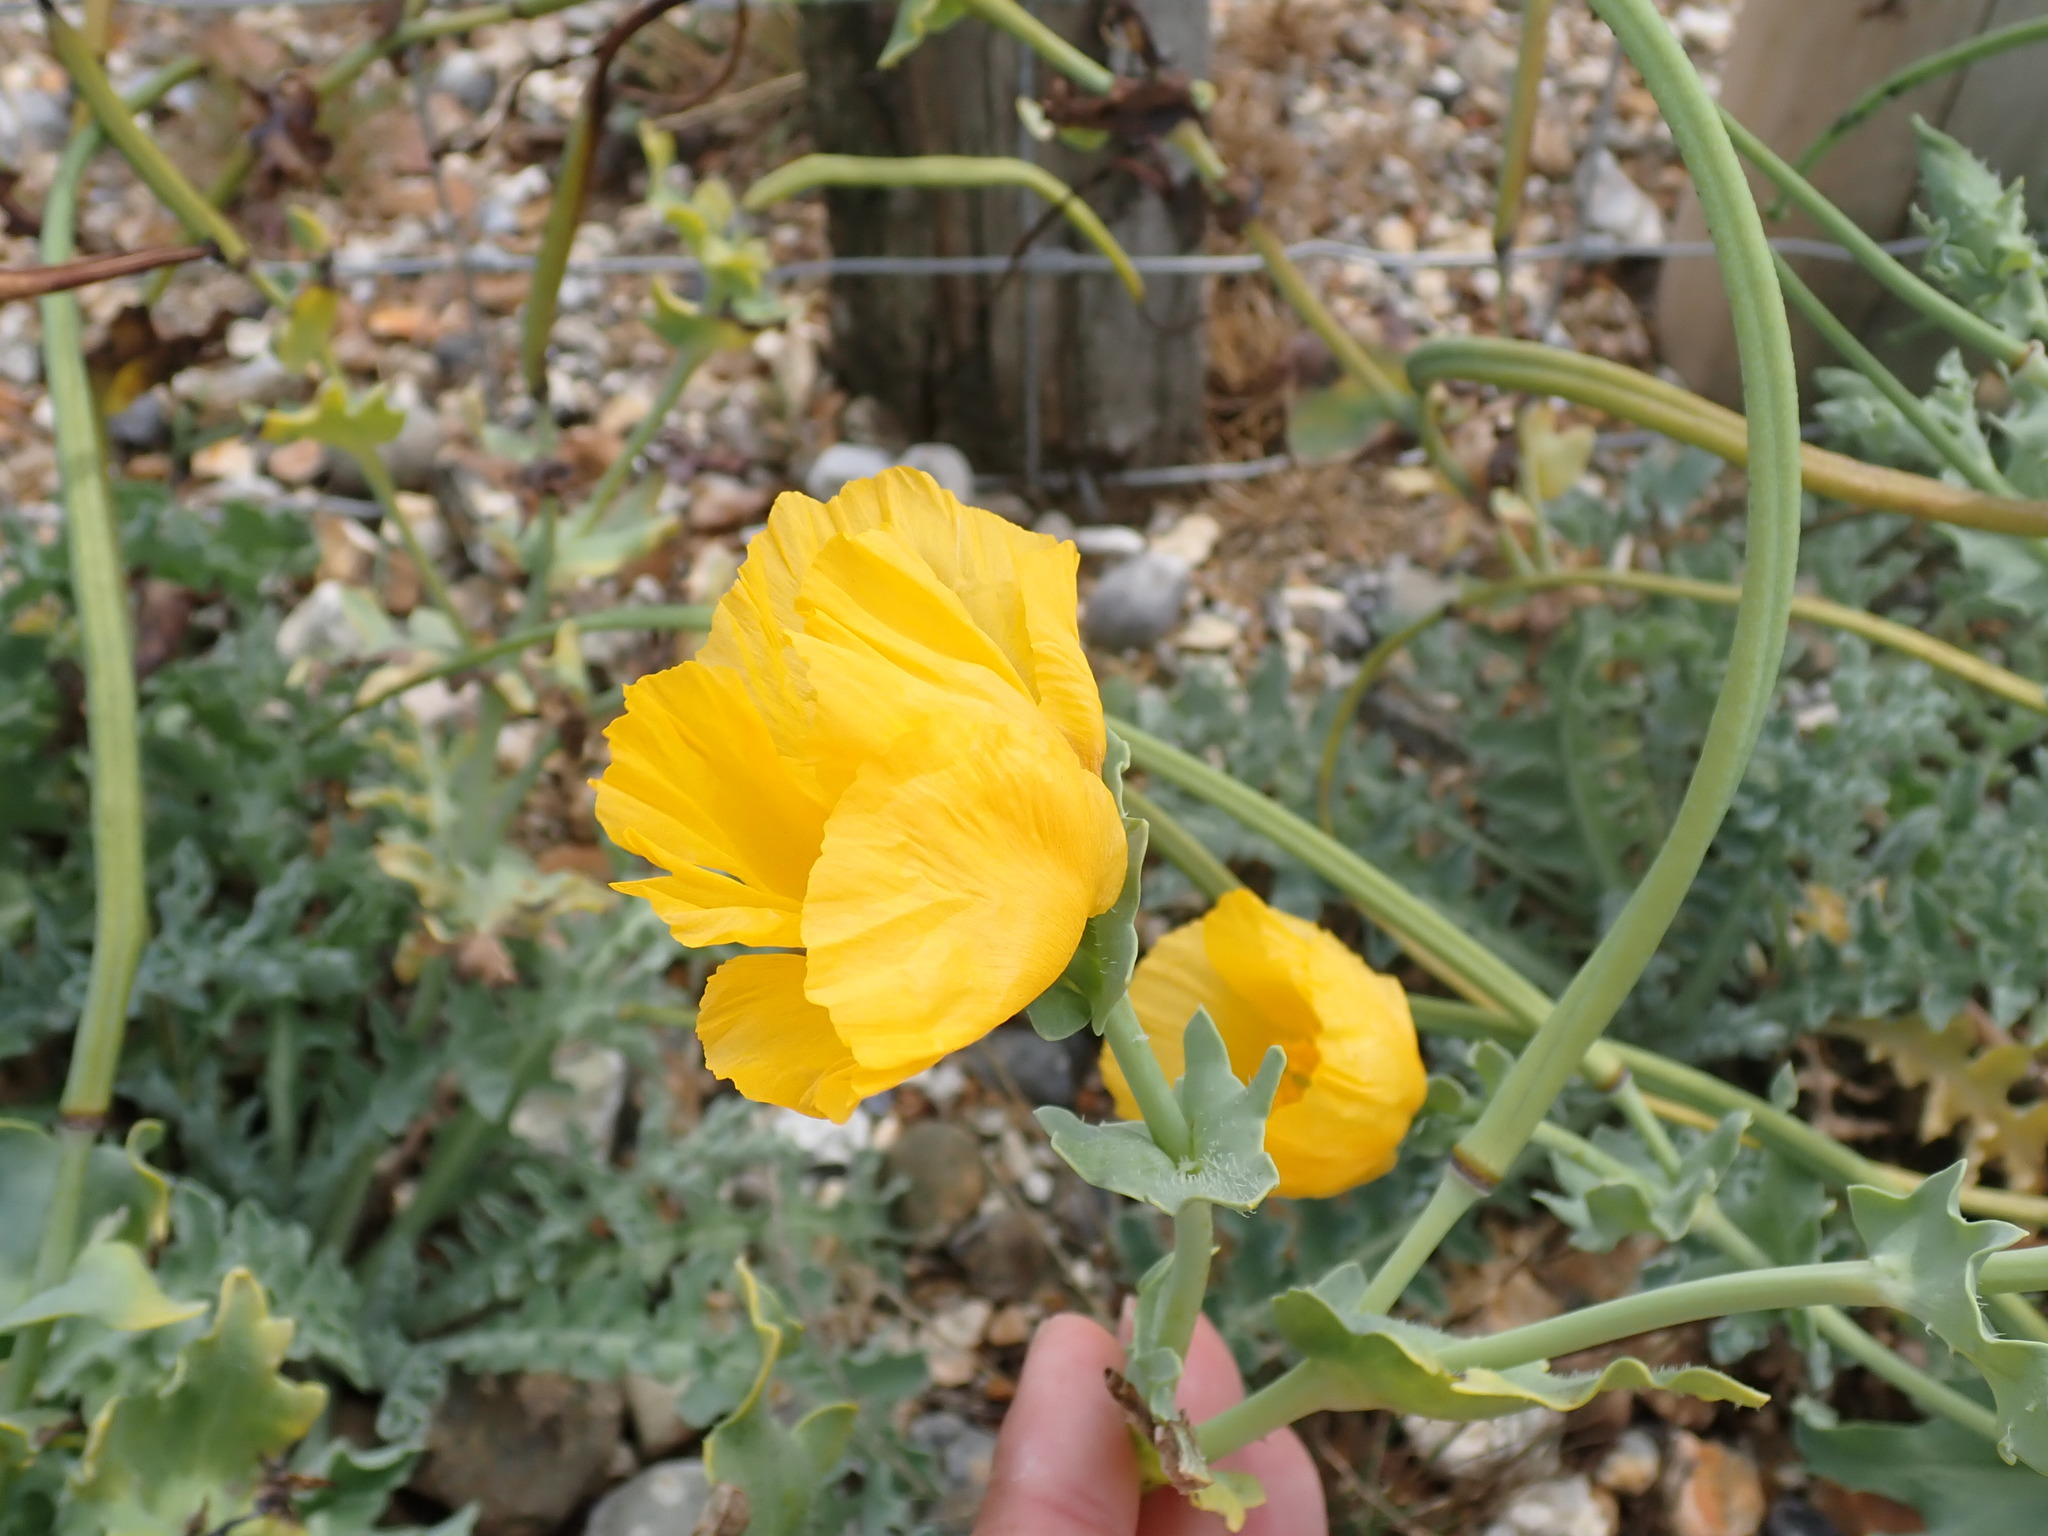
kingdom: Plantae
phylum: Tracheophyta
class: Magnoliopsida
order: Ranunculales
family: Papaveraceae
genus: Glaucium
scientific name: Glaucium flavum
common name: Yellow horned-poppy
